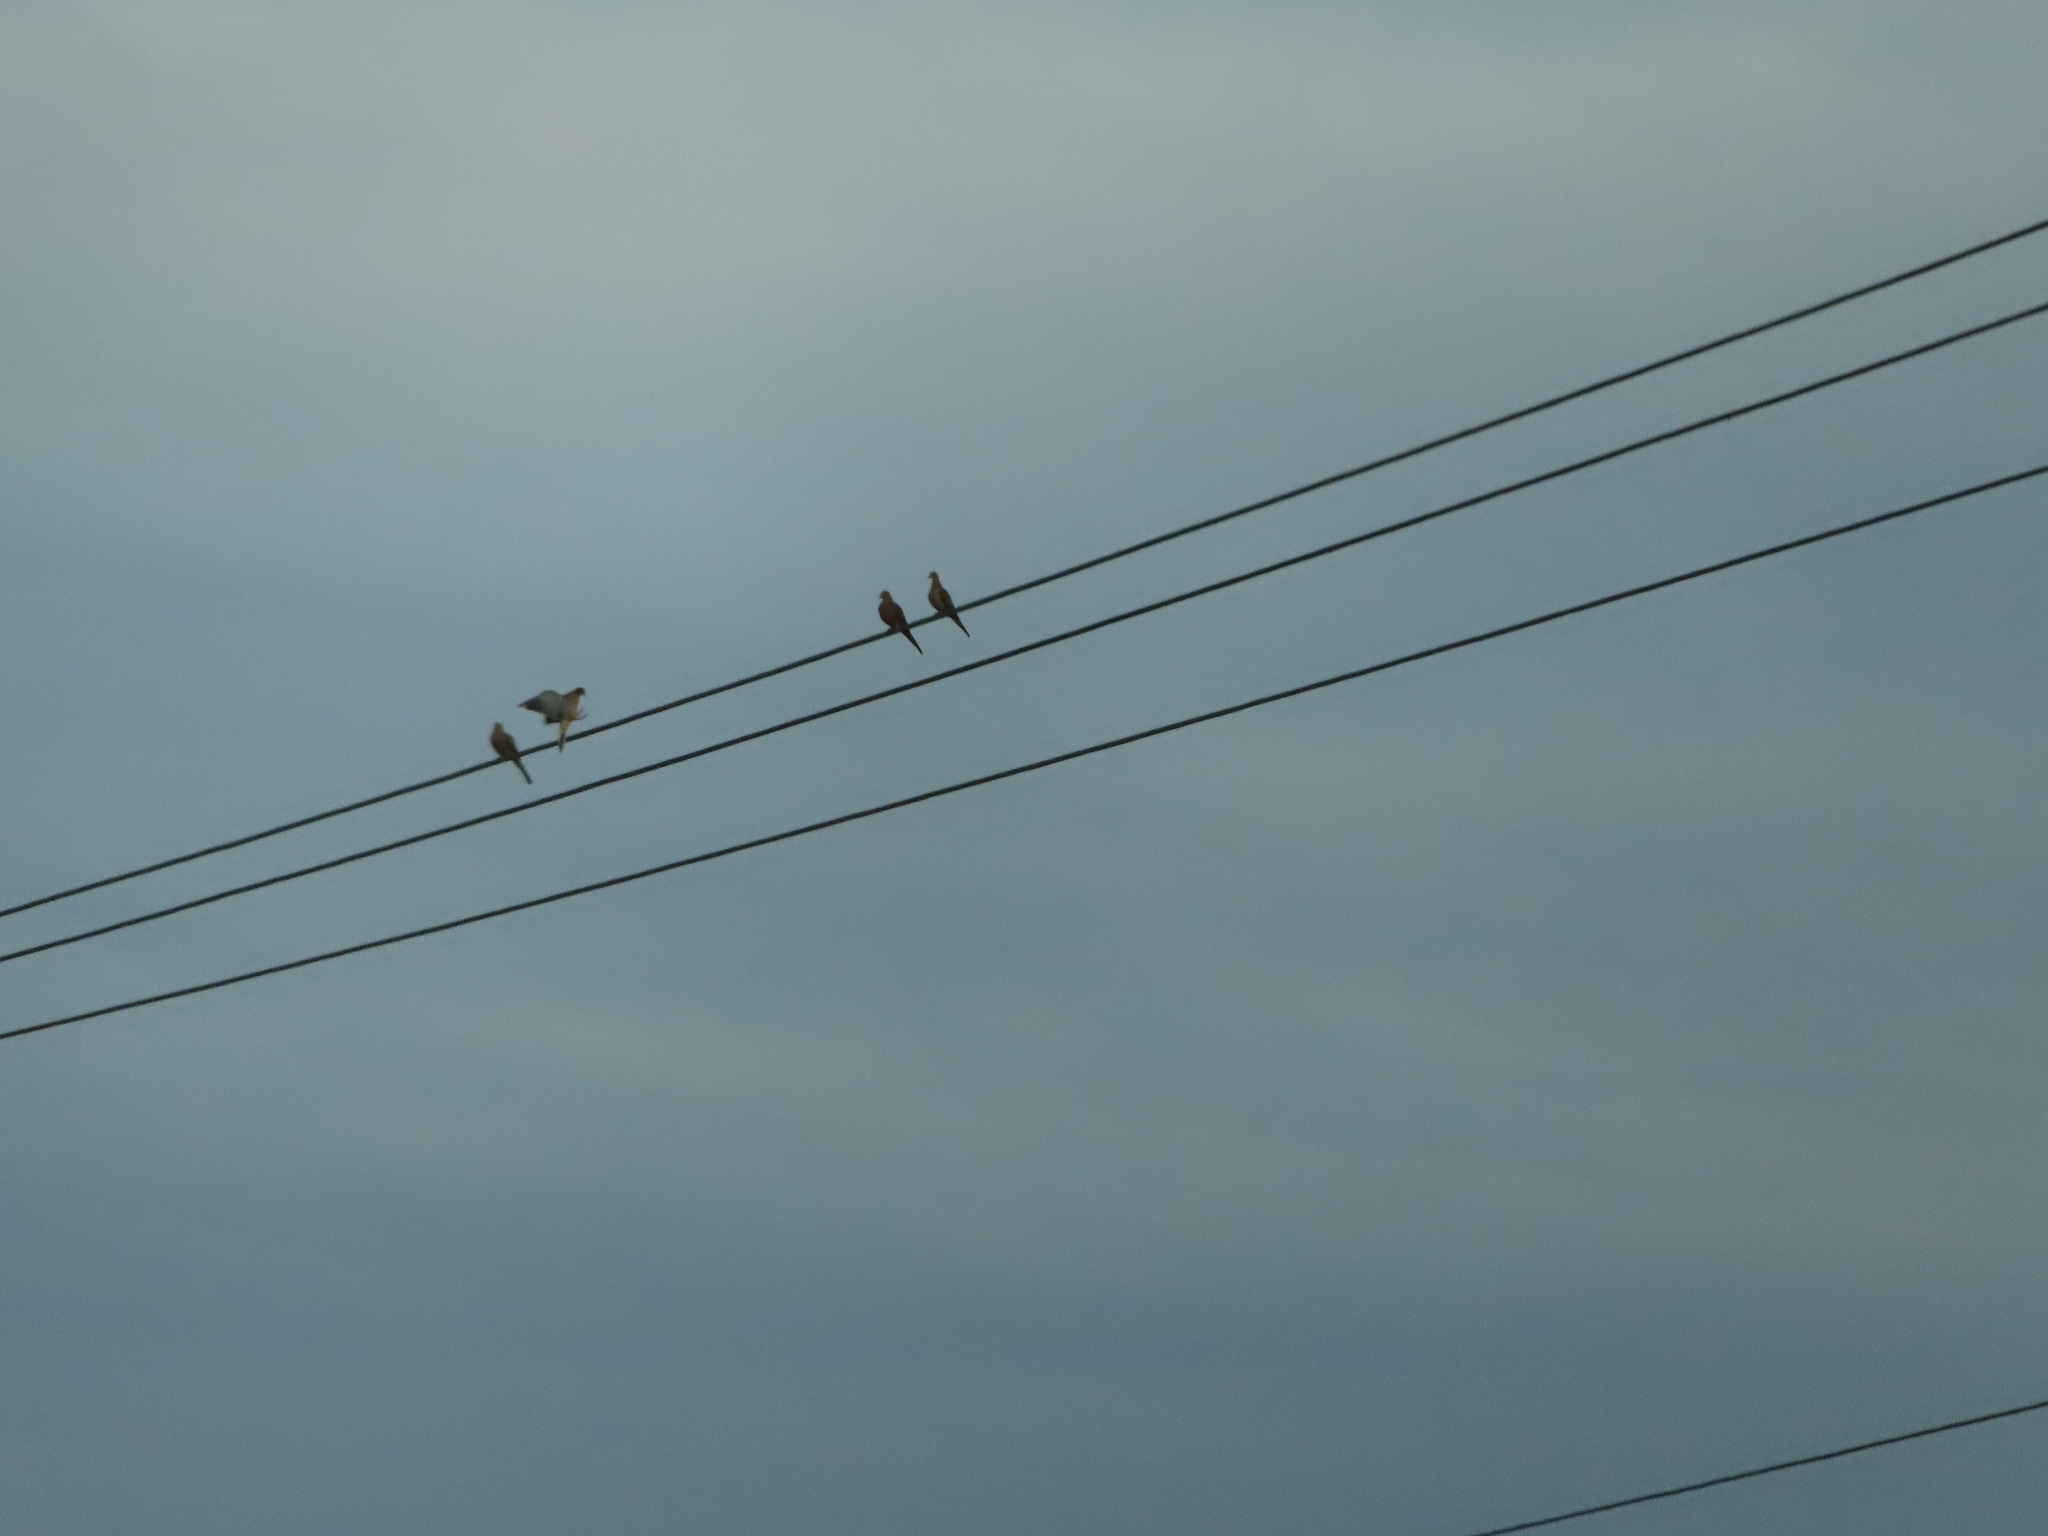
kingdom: Animalia
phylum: Chordata
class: Aves
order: Columbiformes
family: Columbidae
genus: Zenaida
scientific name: Zenaida macroura
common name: Mourning dove
